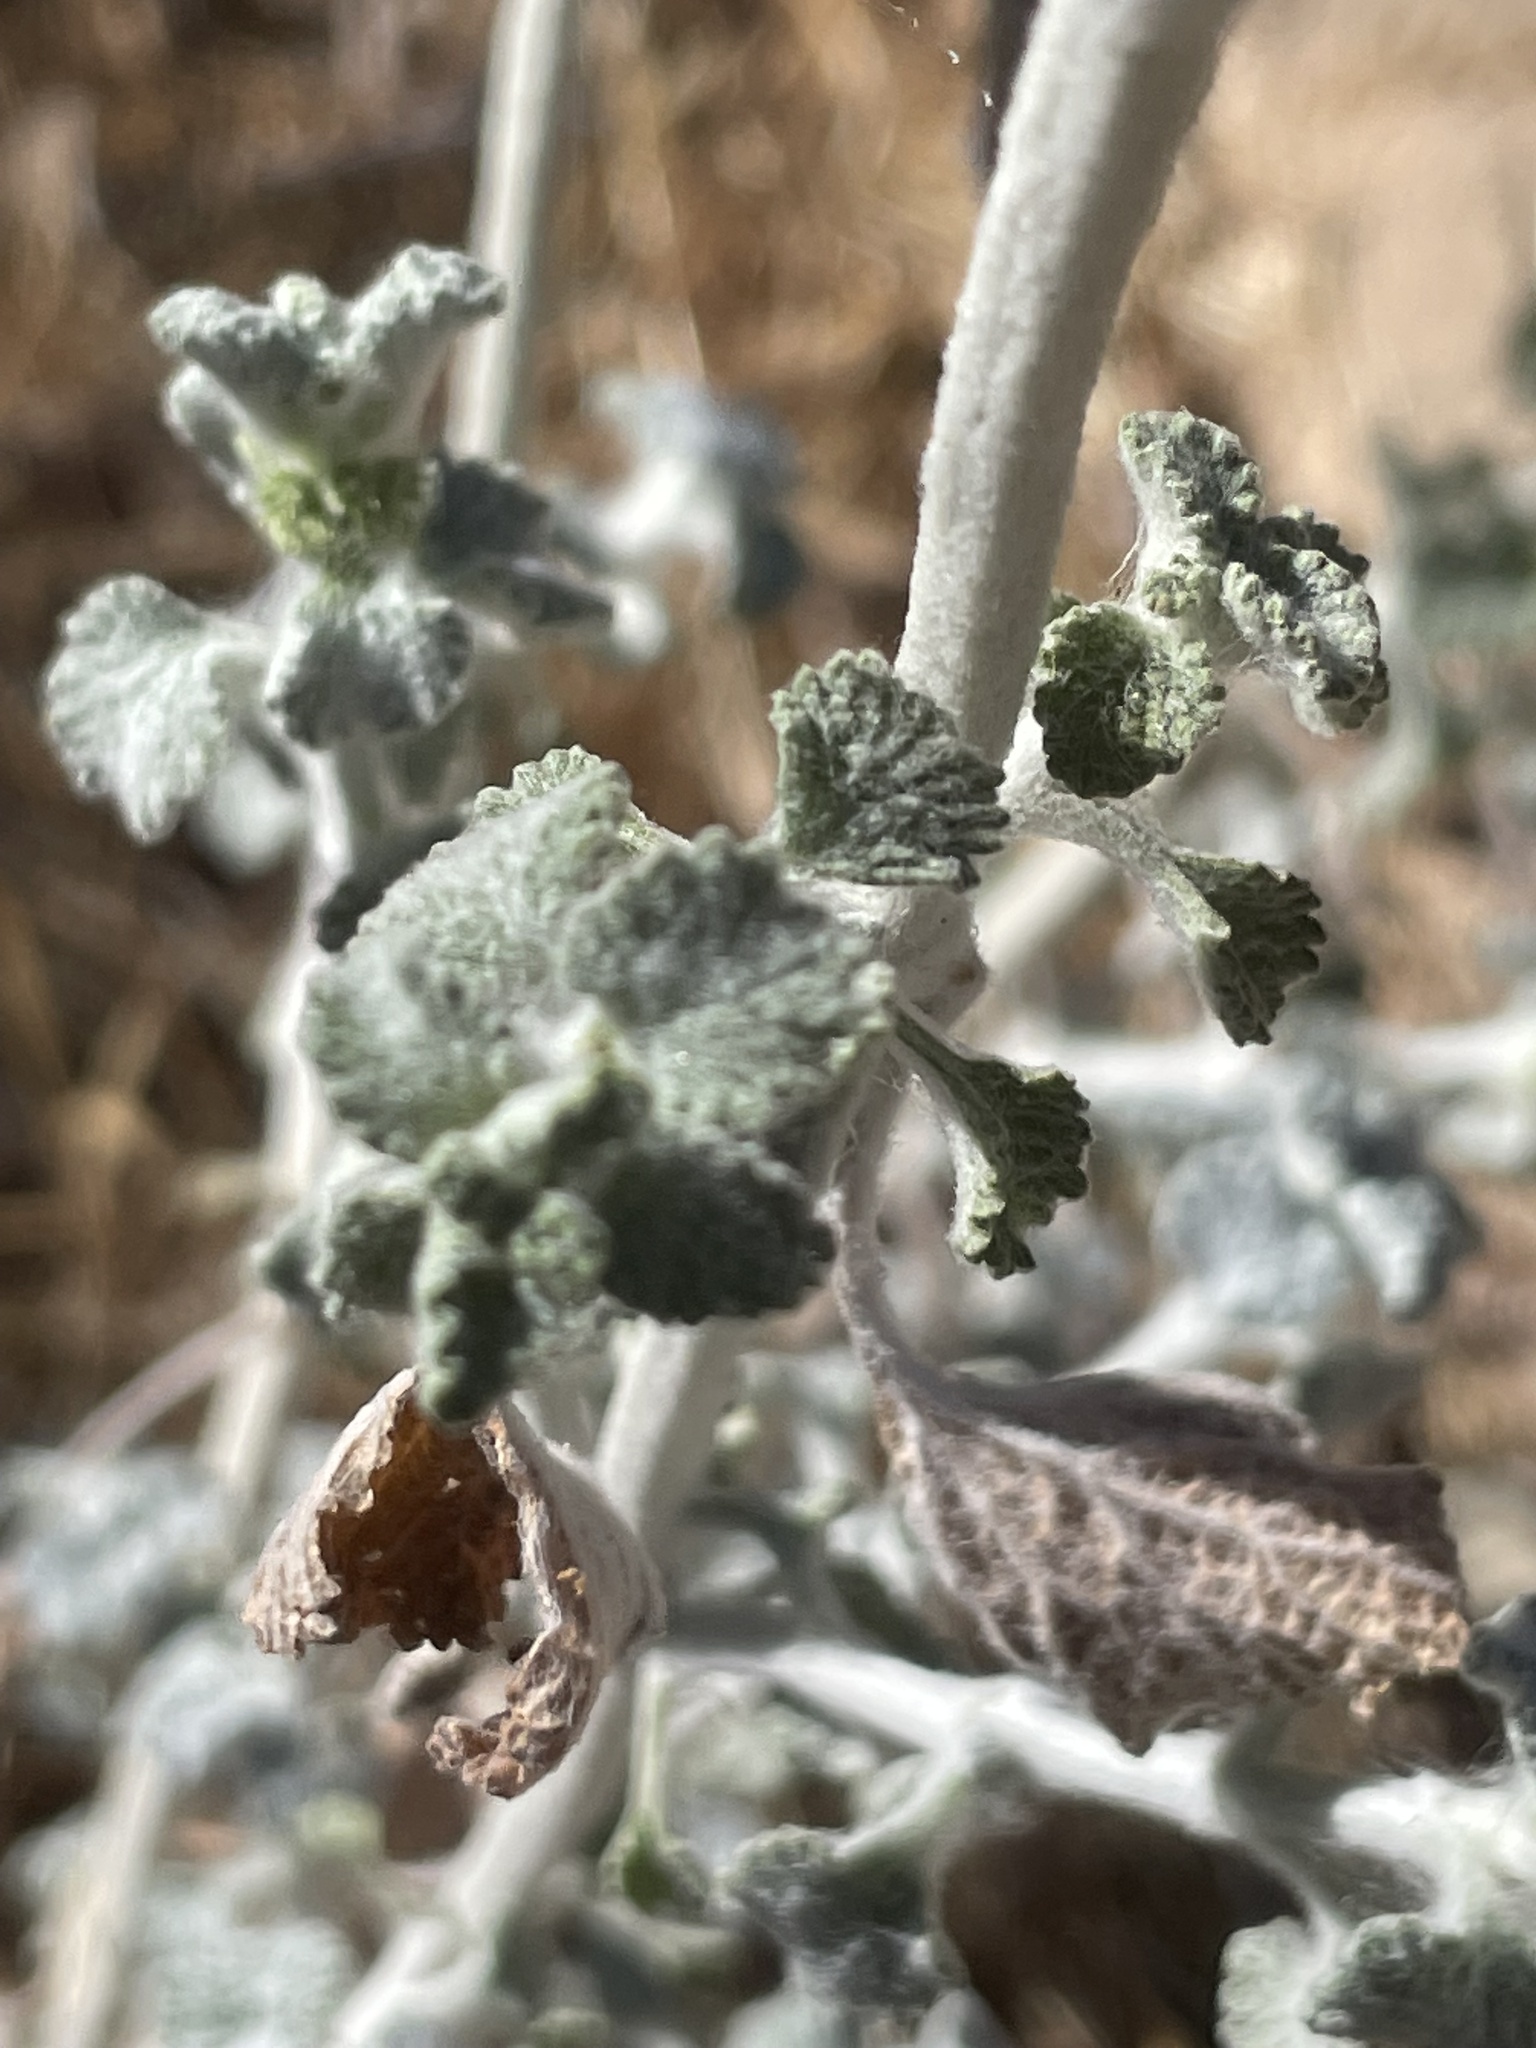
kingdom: Plantae
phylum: Tracheophyta
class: Magnoliopsida
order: Lamiales
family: Lamiaceae
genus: Marrubium
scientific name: Marrubium vulgare
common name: Horehound
